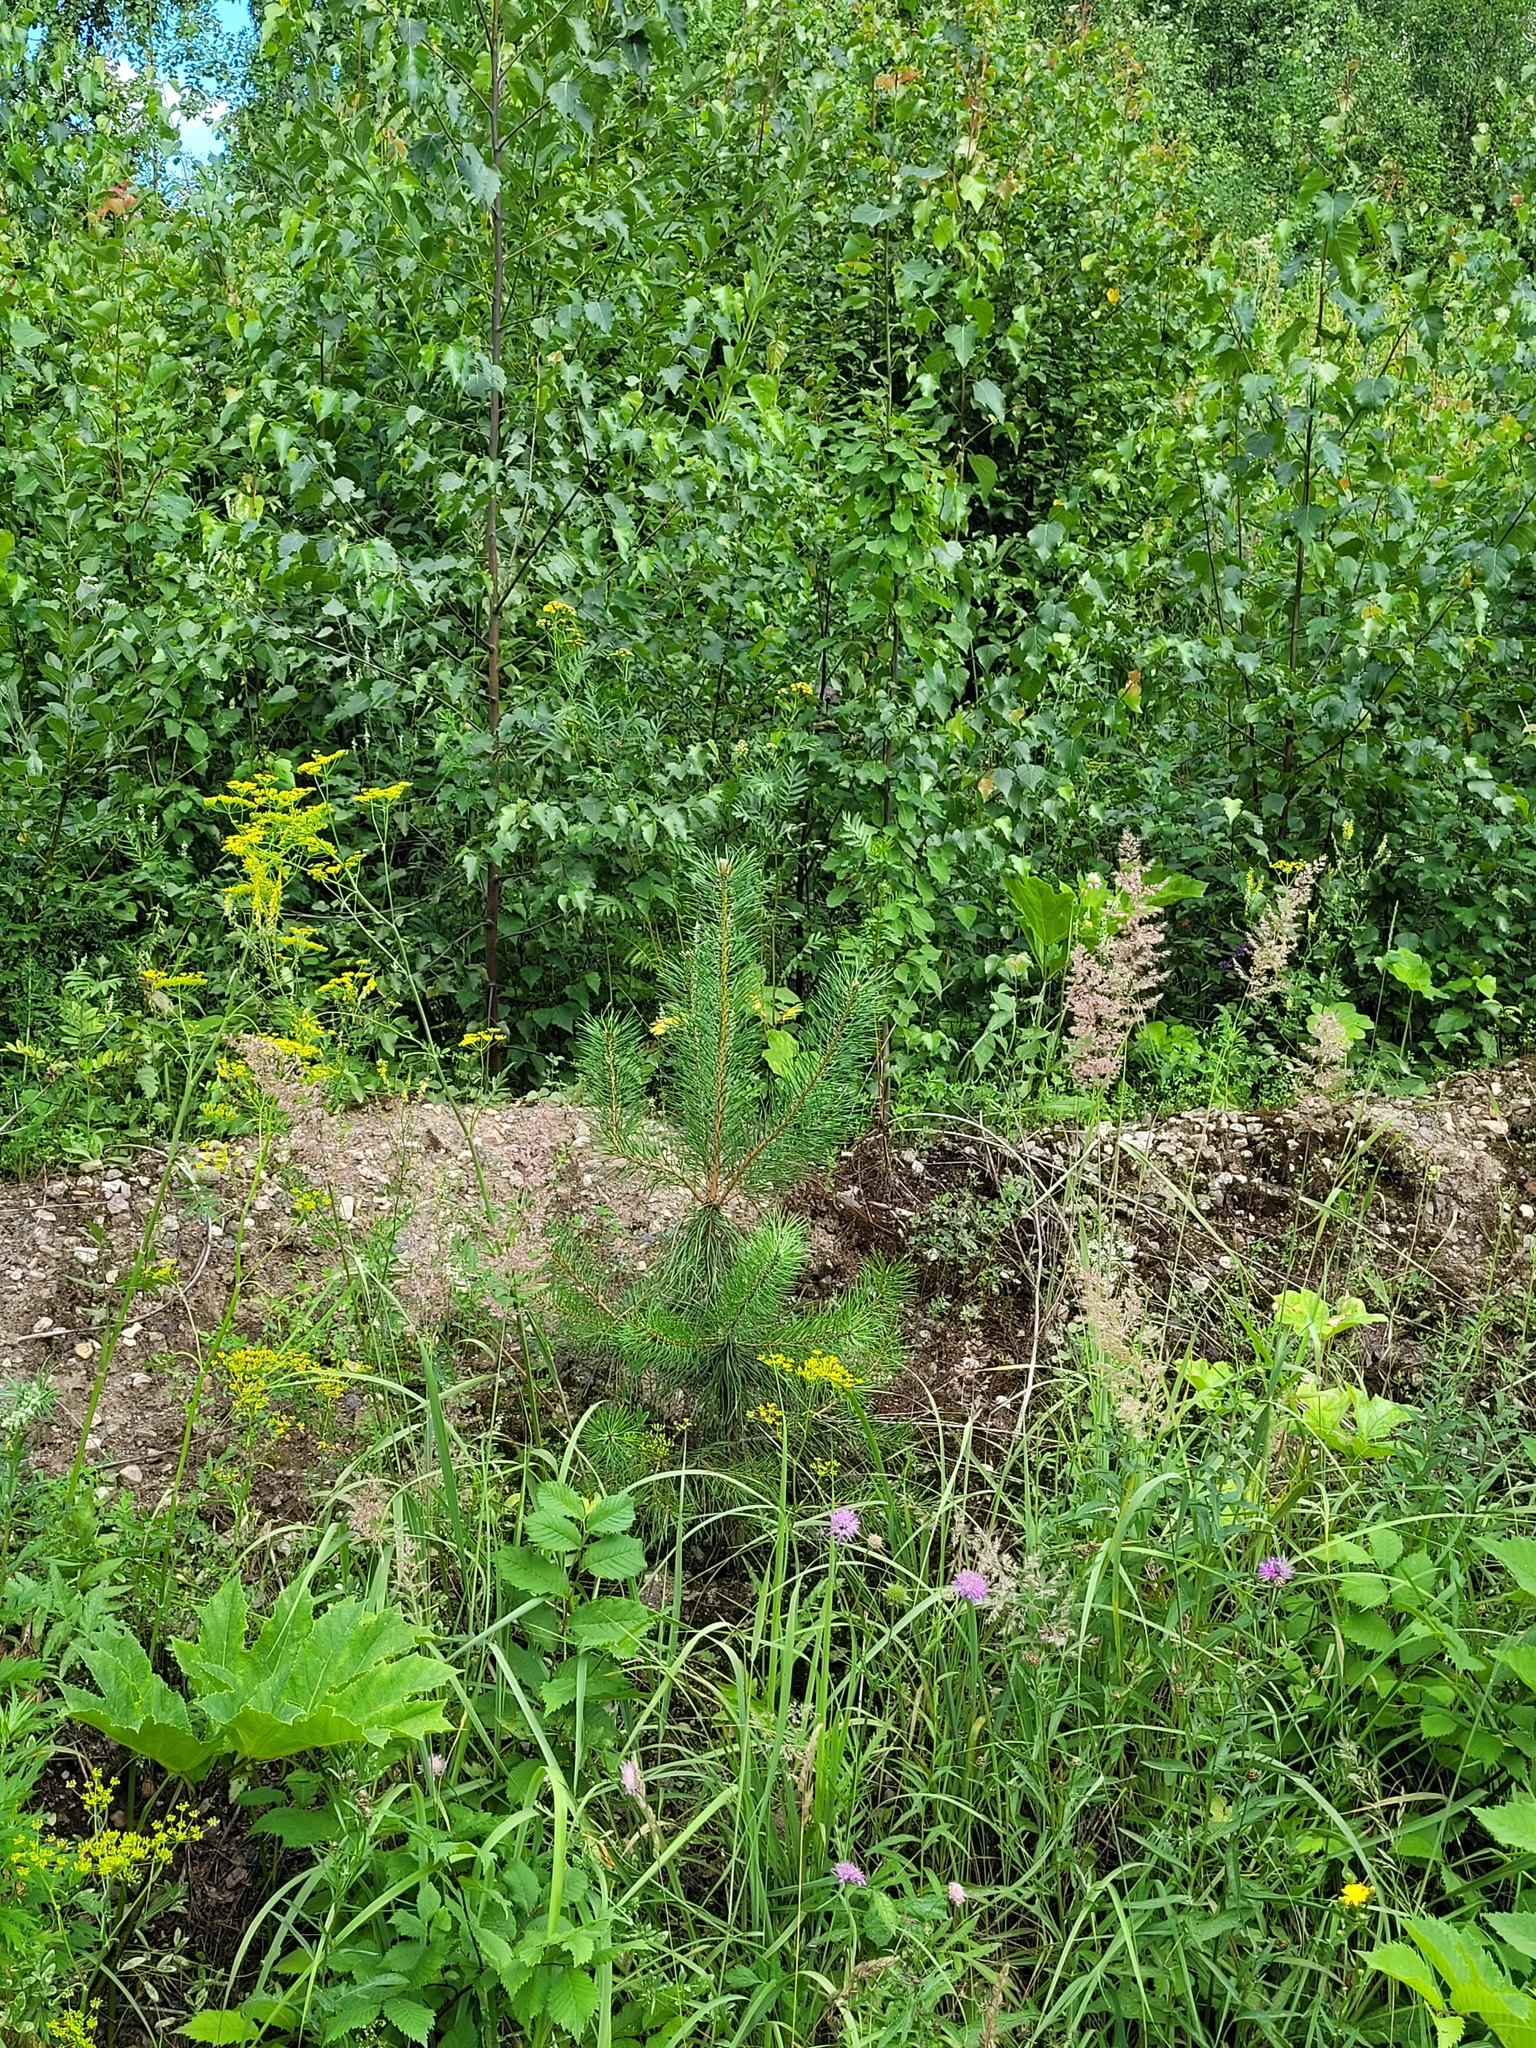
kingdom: Plantae
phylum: Tracheophyta
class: Pinopsida
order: Pinales
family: Pinaceae
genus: Pinus
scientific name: Pinus sylvestris
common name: Scots pine
